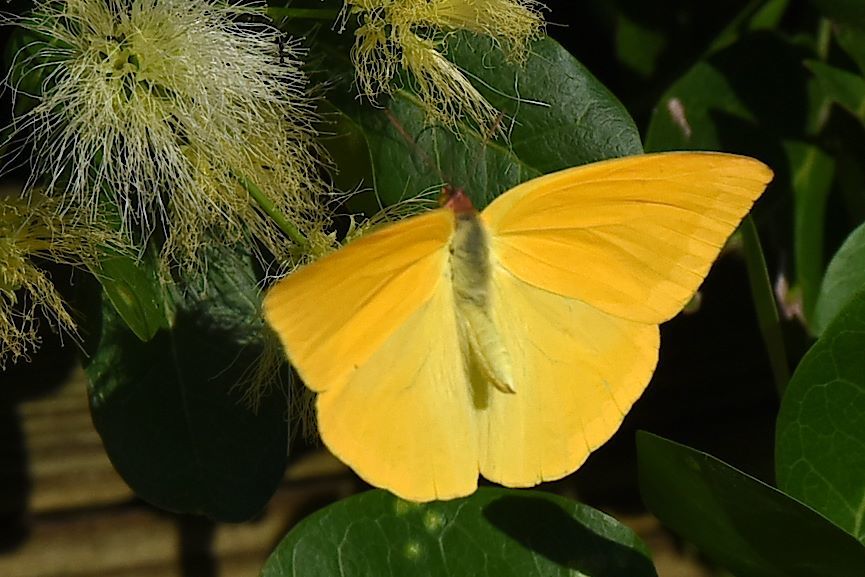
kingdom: Animalia
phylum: Arthropoda
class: Insecta
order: Lepidoptera
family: Pieridae
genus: Phoebis
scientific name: Phoebis agarithe
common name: Large orange sulphur
